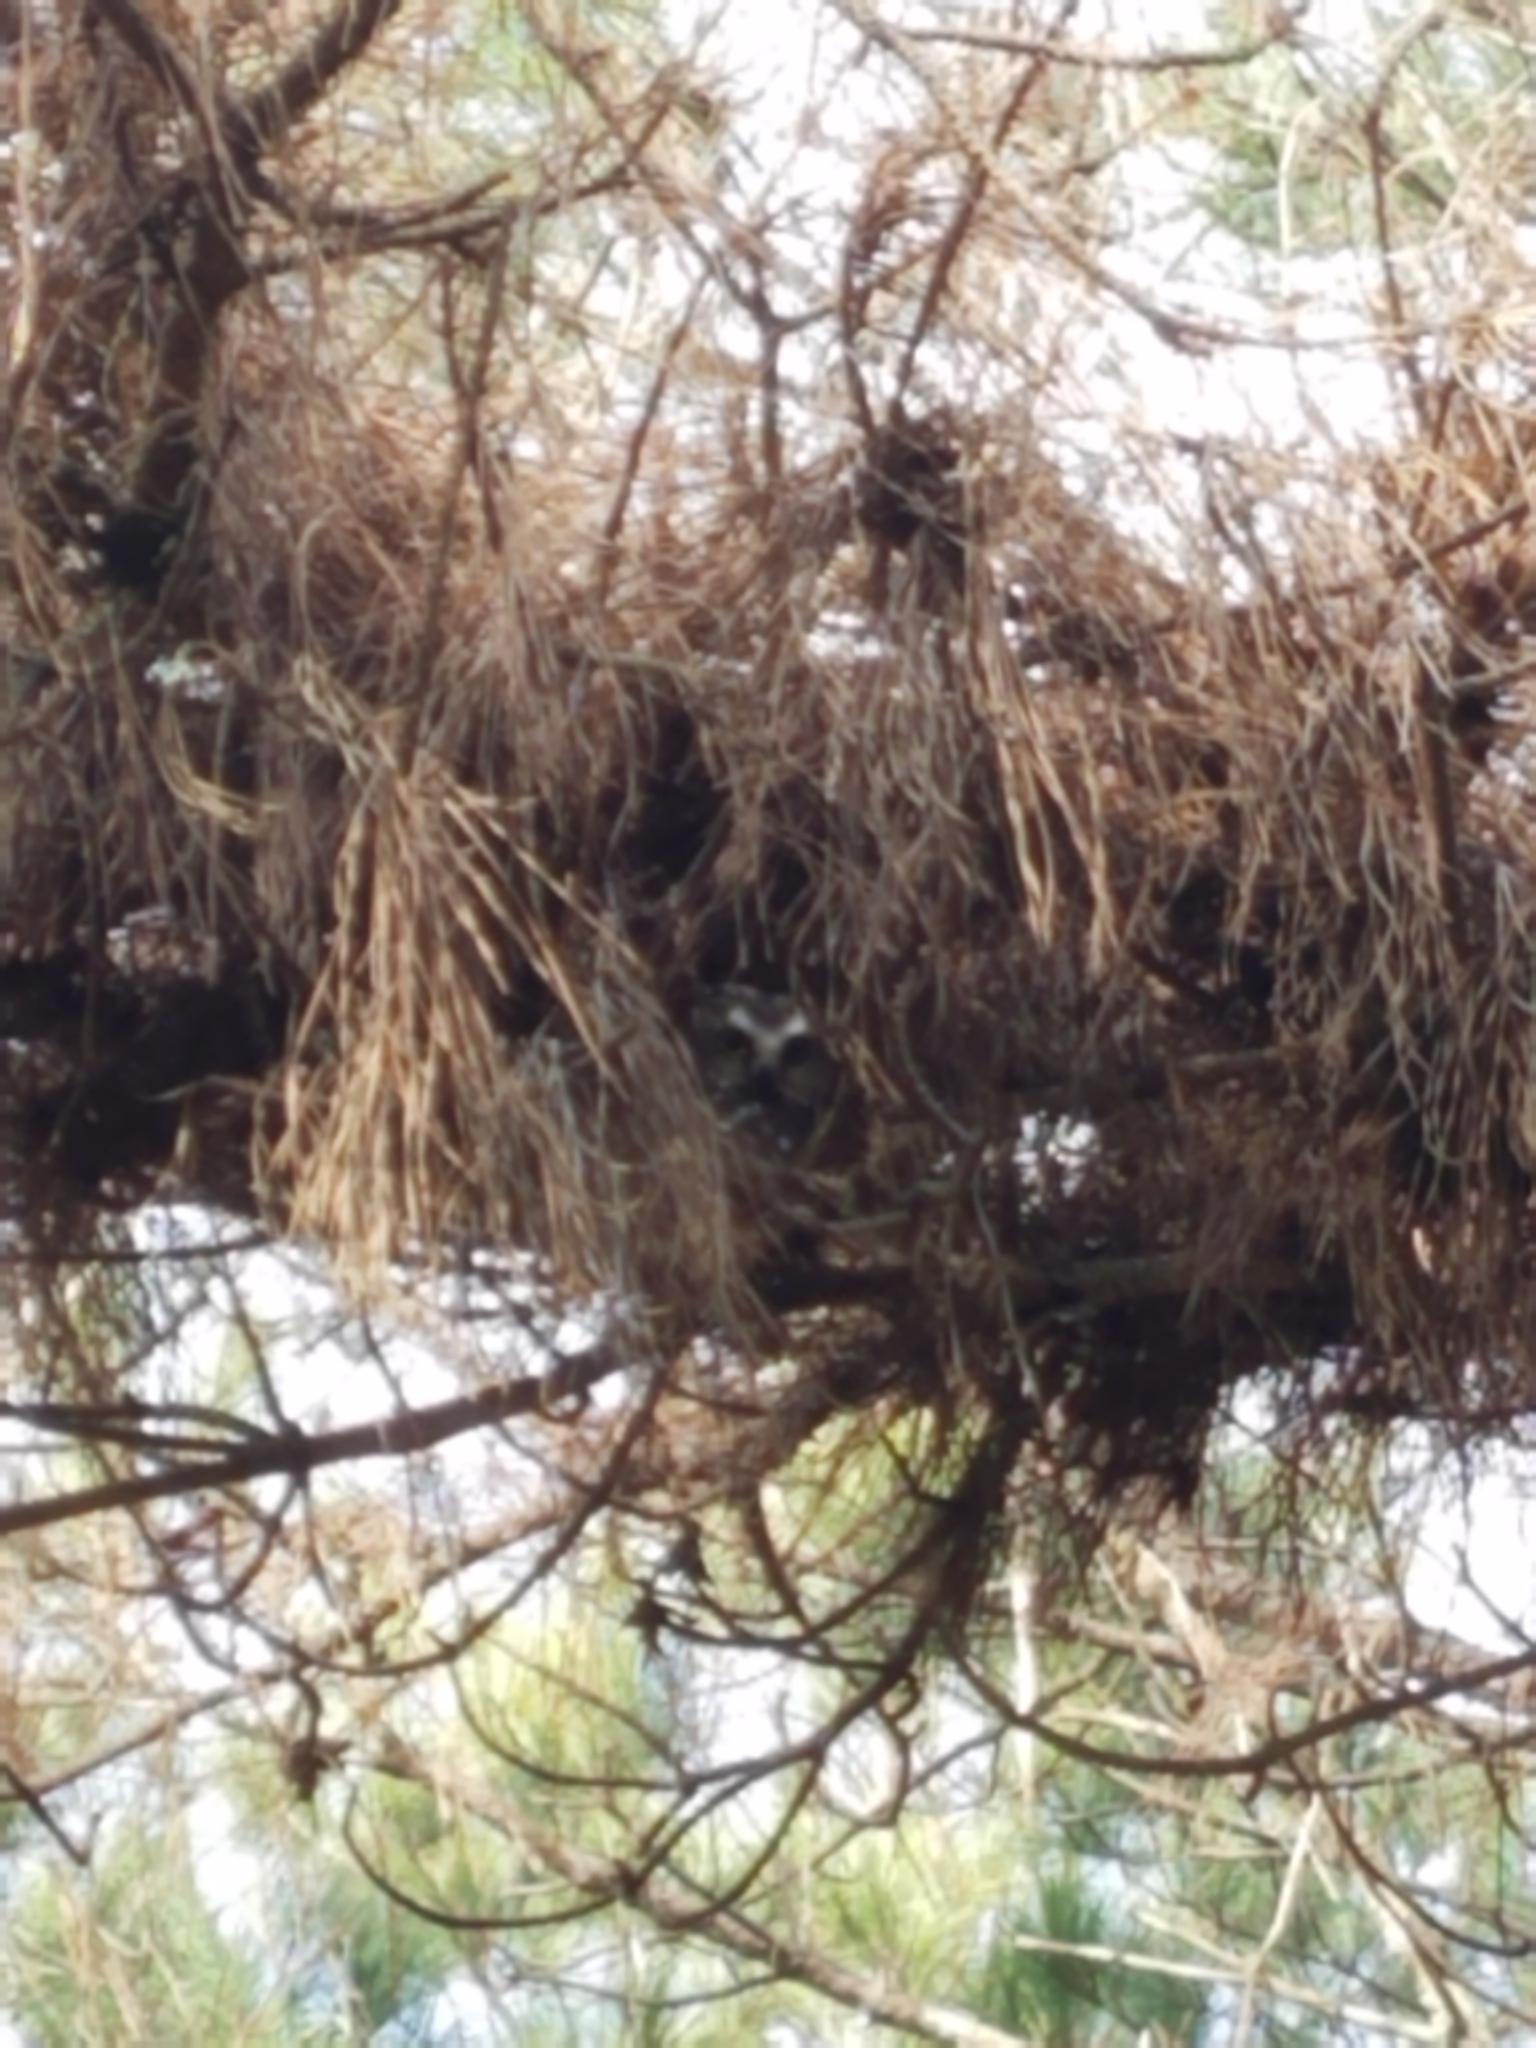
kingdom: Animalia
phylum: Chordata
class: Aves
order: Strigiformes
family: Strigidae
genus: Aegolius
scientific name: Aegolius acadicus
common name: Northern saw-whet owl
